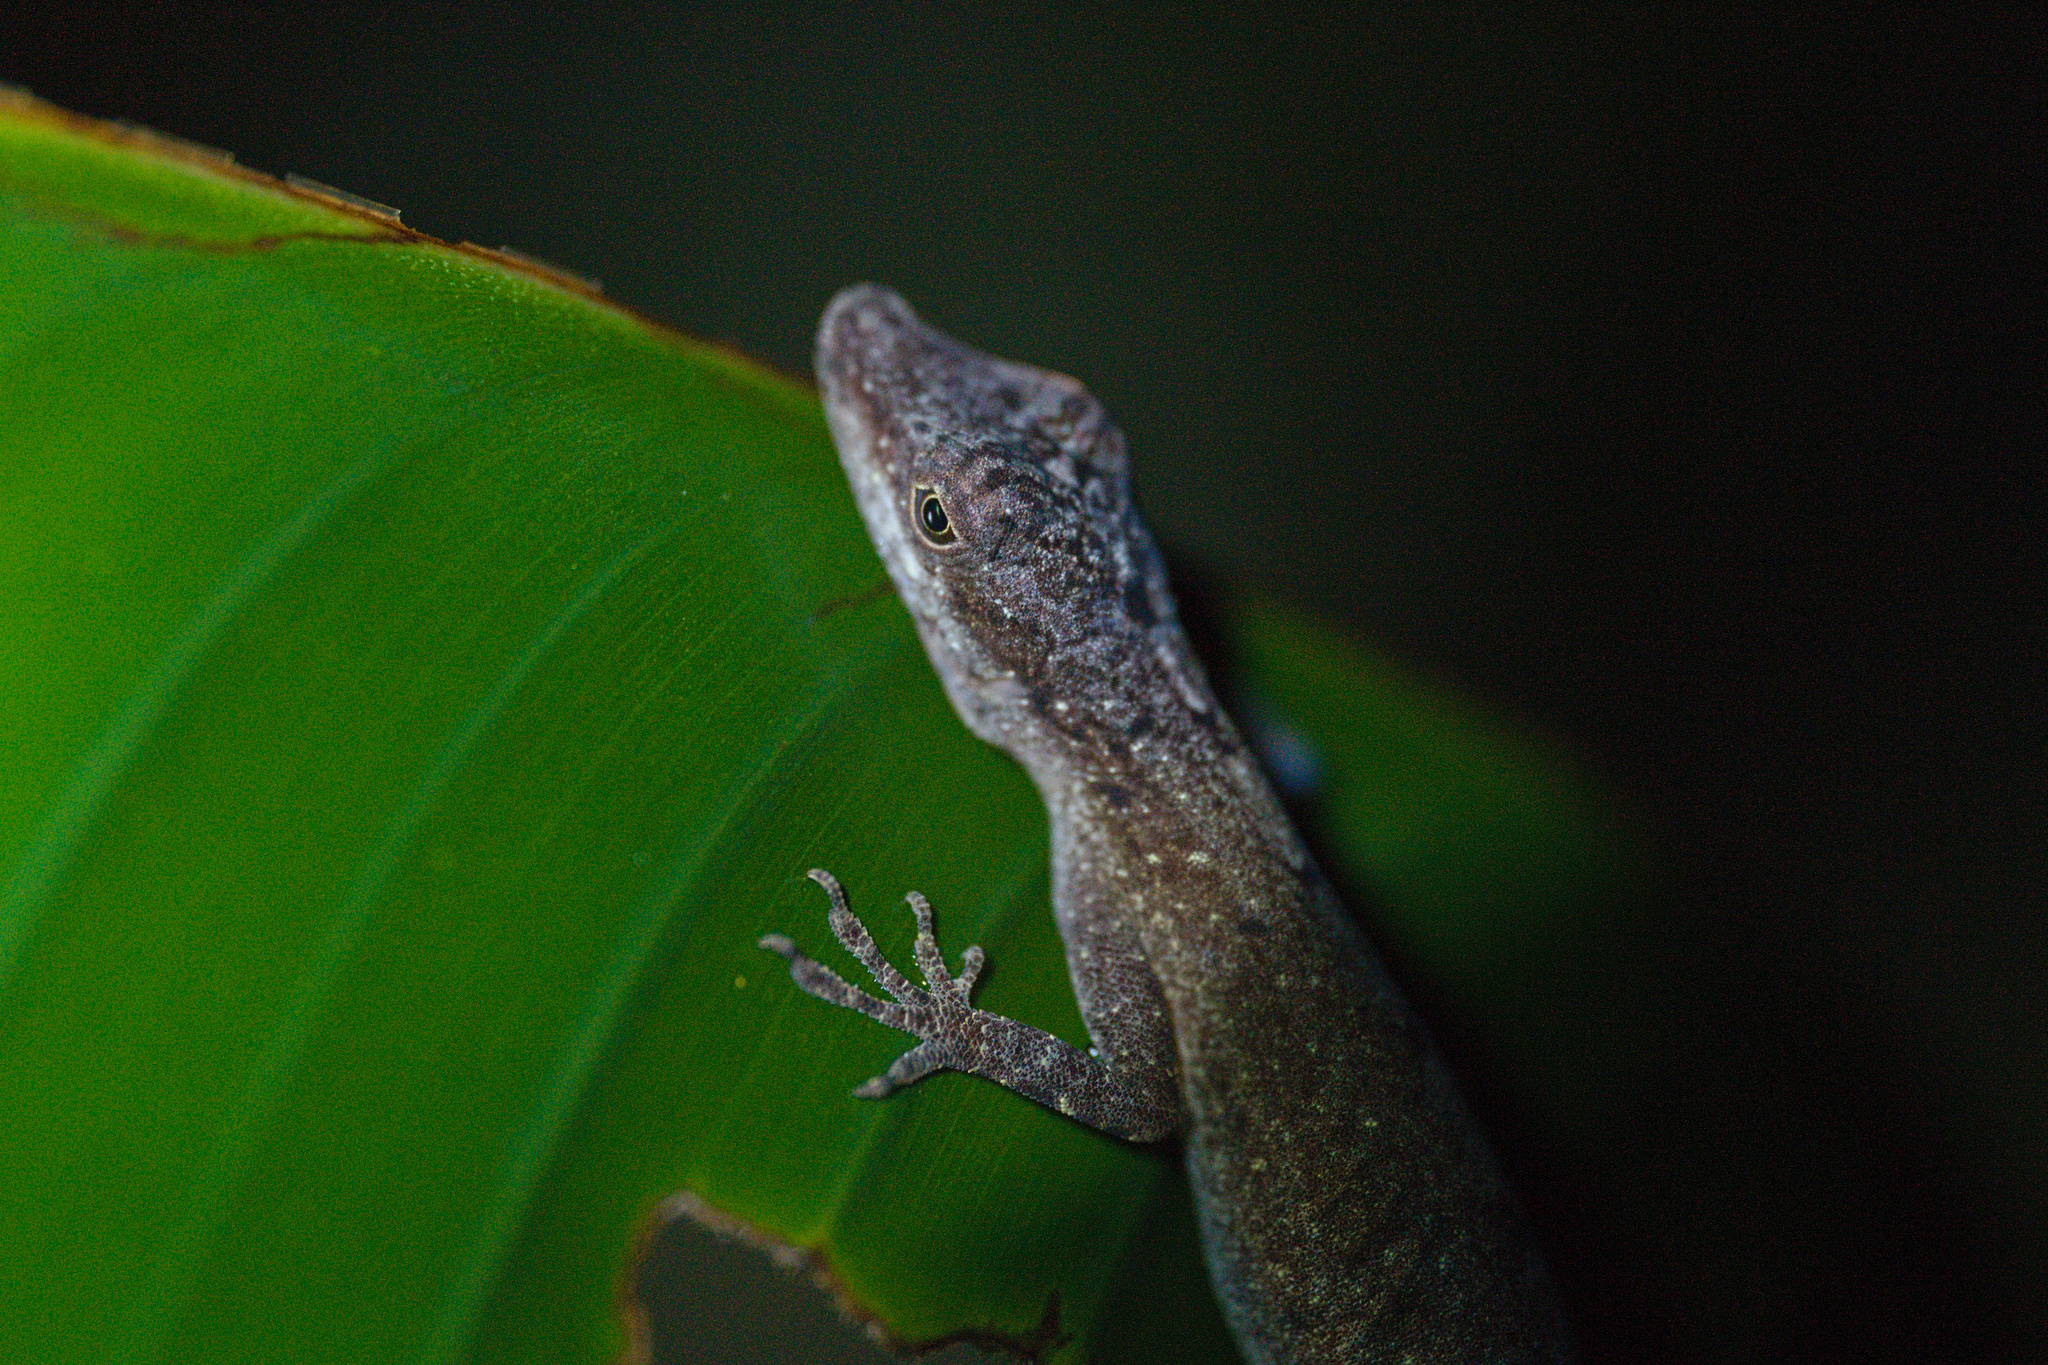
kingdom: Animalia
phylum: Chordata
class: Squamata
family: Dactyloidae
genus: Anolis
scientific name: Anolis limifrons
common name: Border anole
